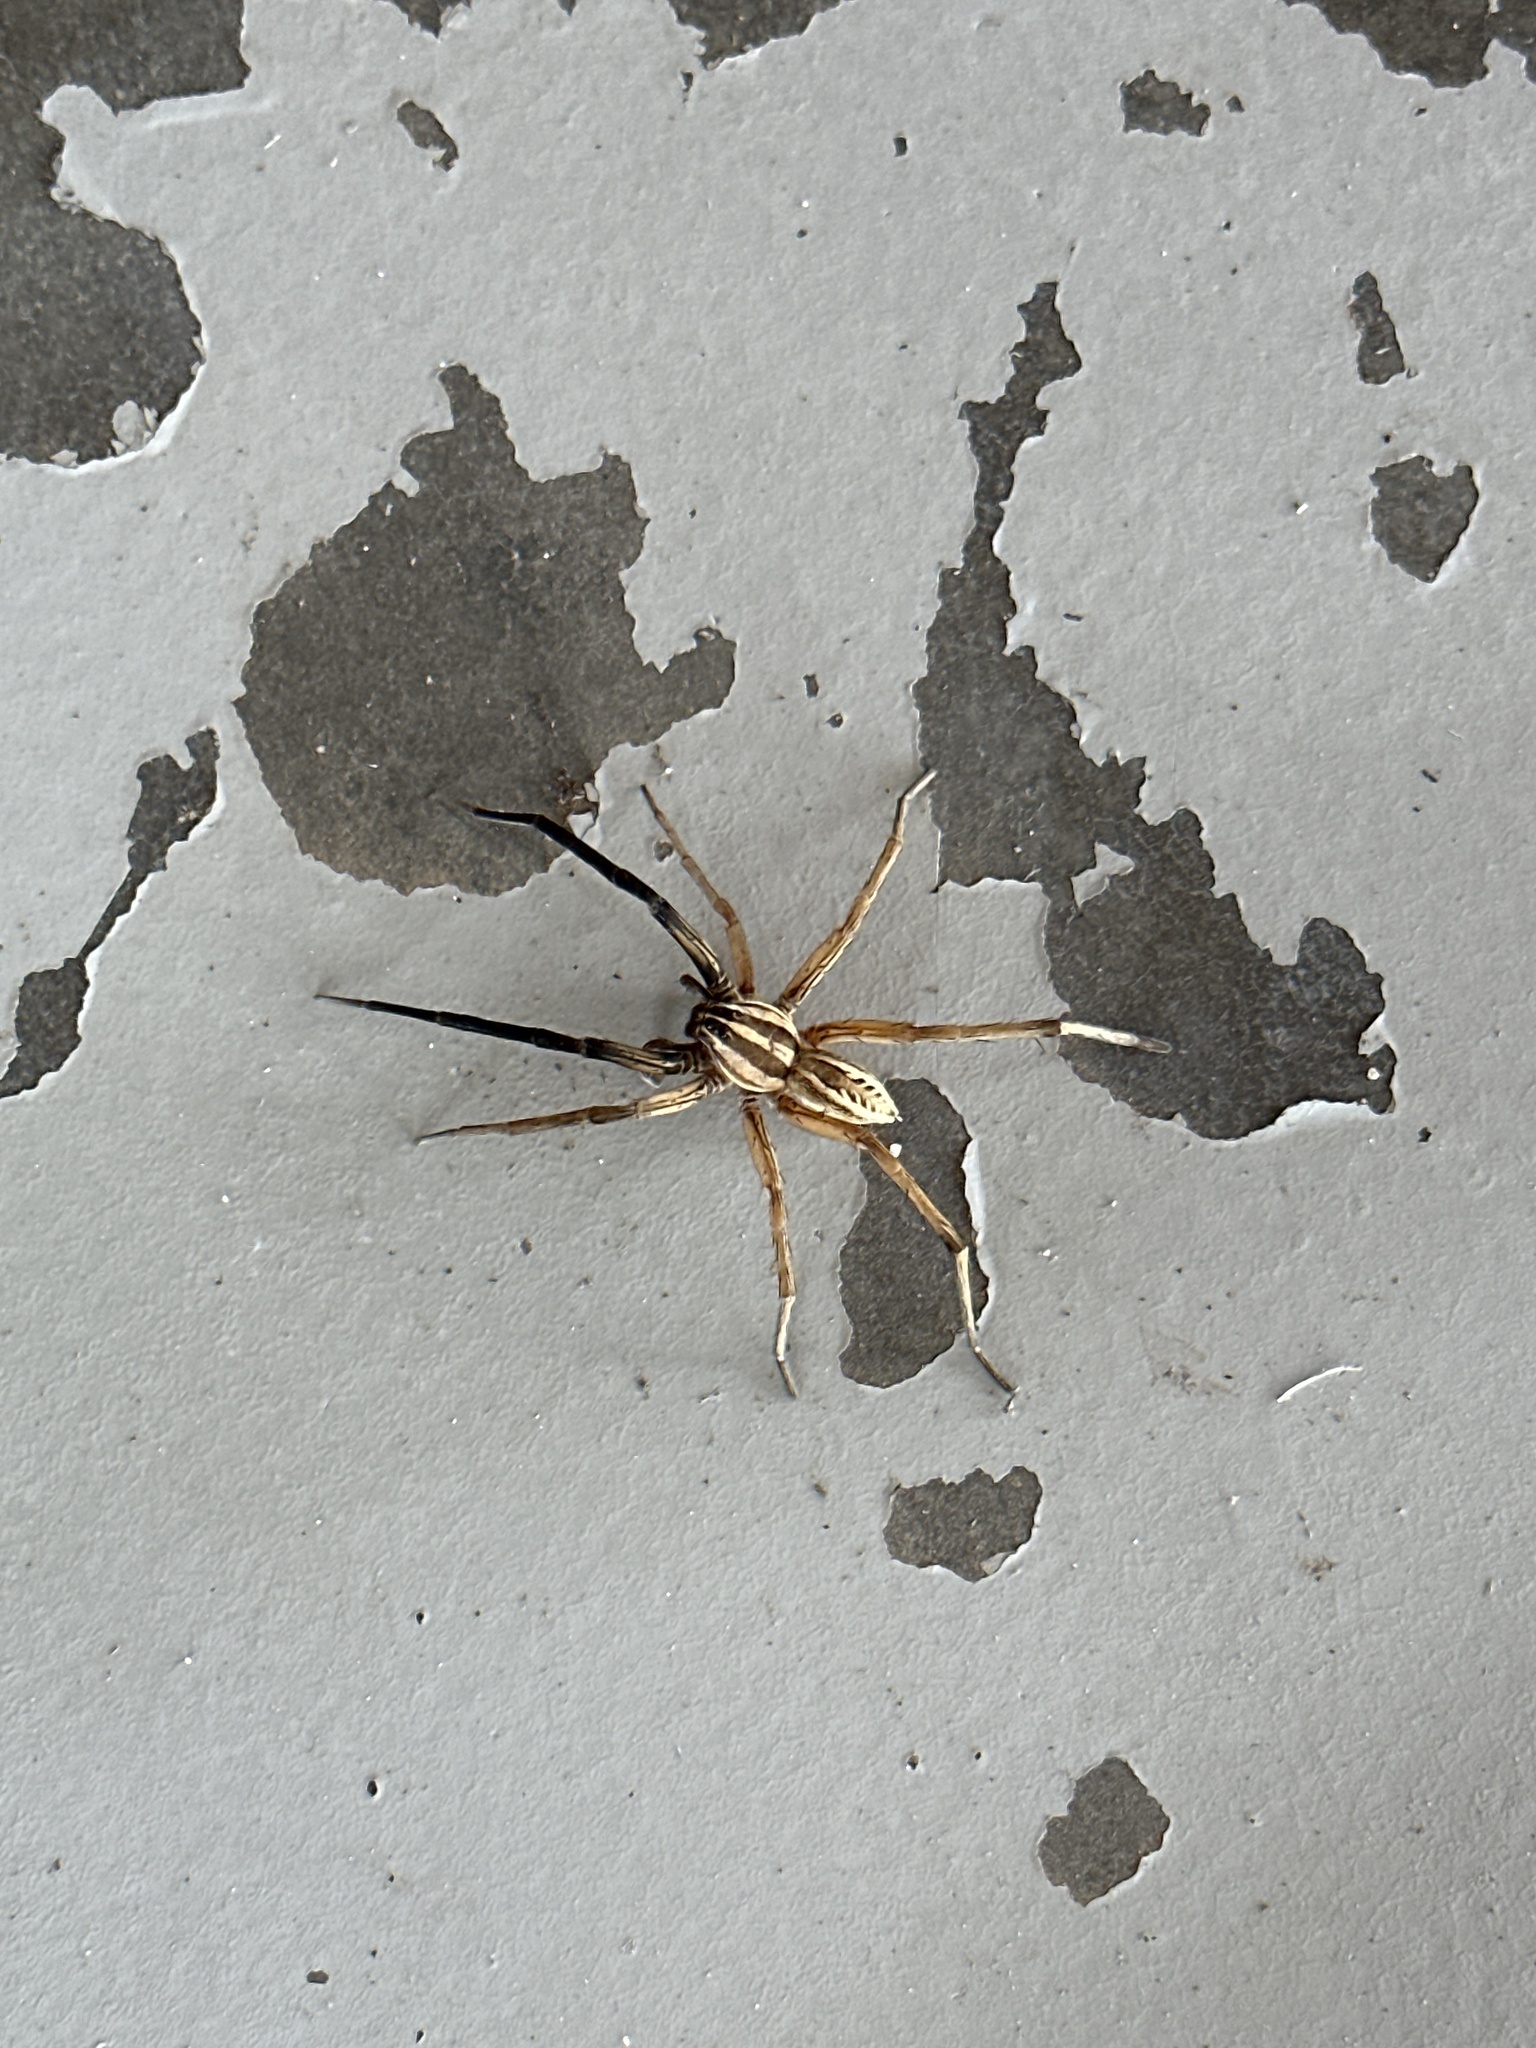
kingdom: Animalia
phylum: Arthropoda
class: Arachnida
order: Araneae
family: Lycosidae
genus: Rabidosa
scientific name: Rabidosa rabida
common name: Rabid wolf spider
